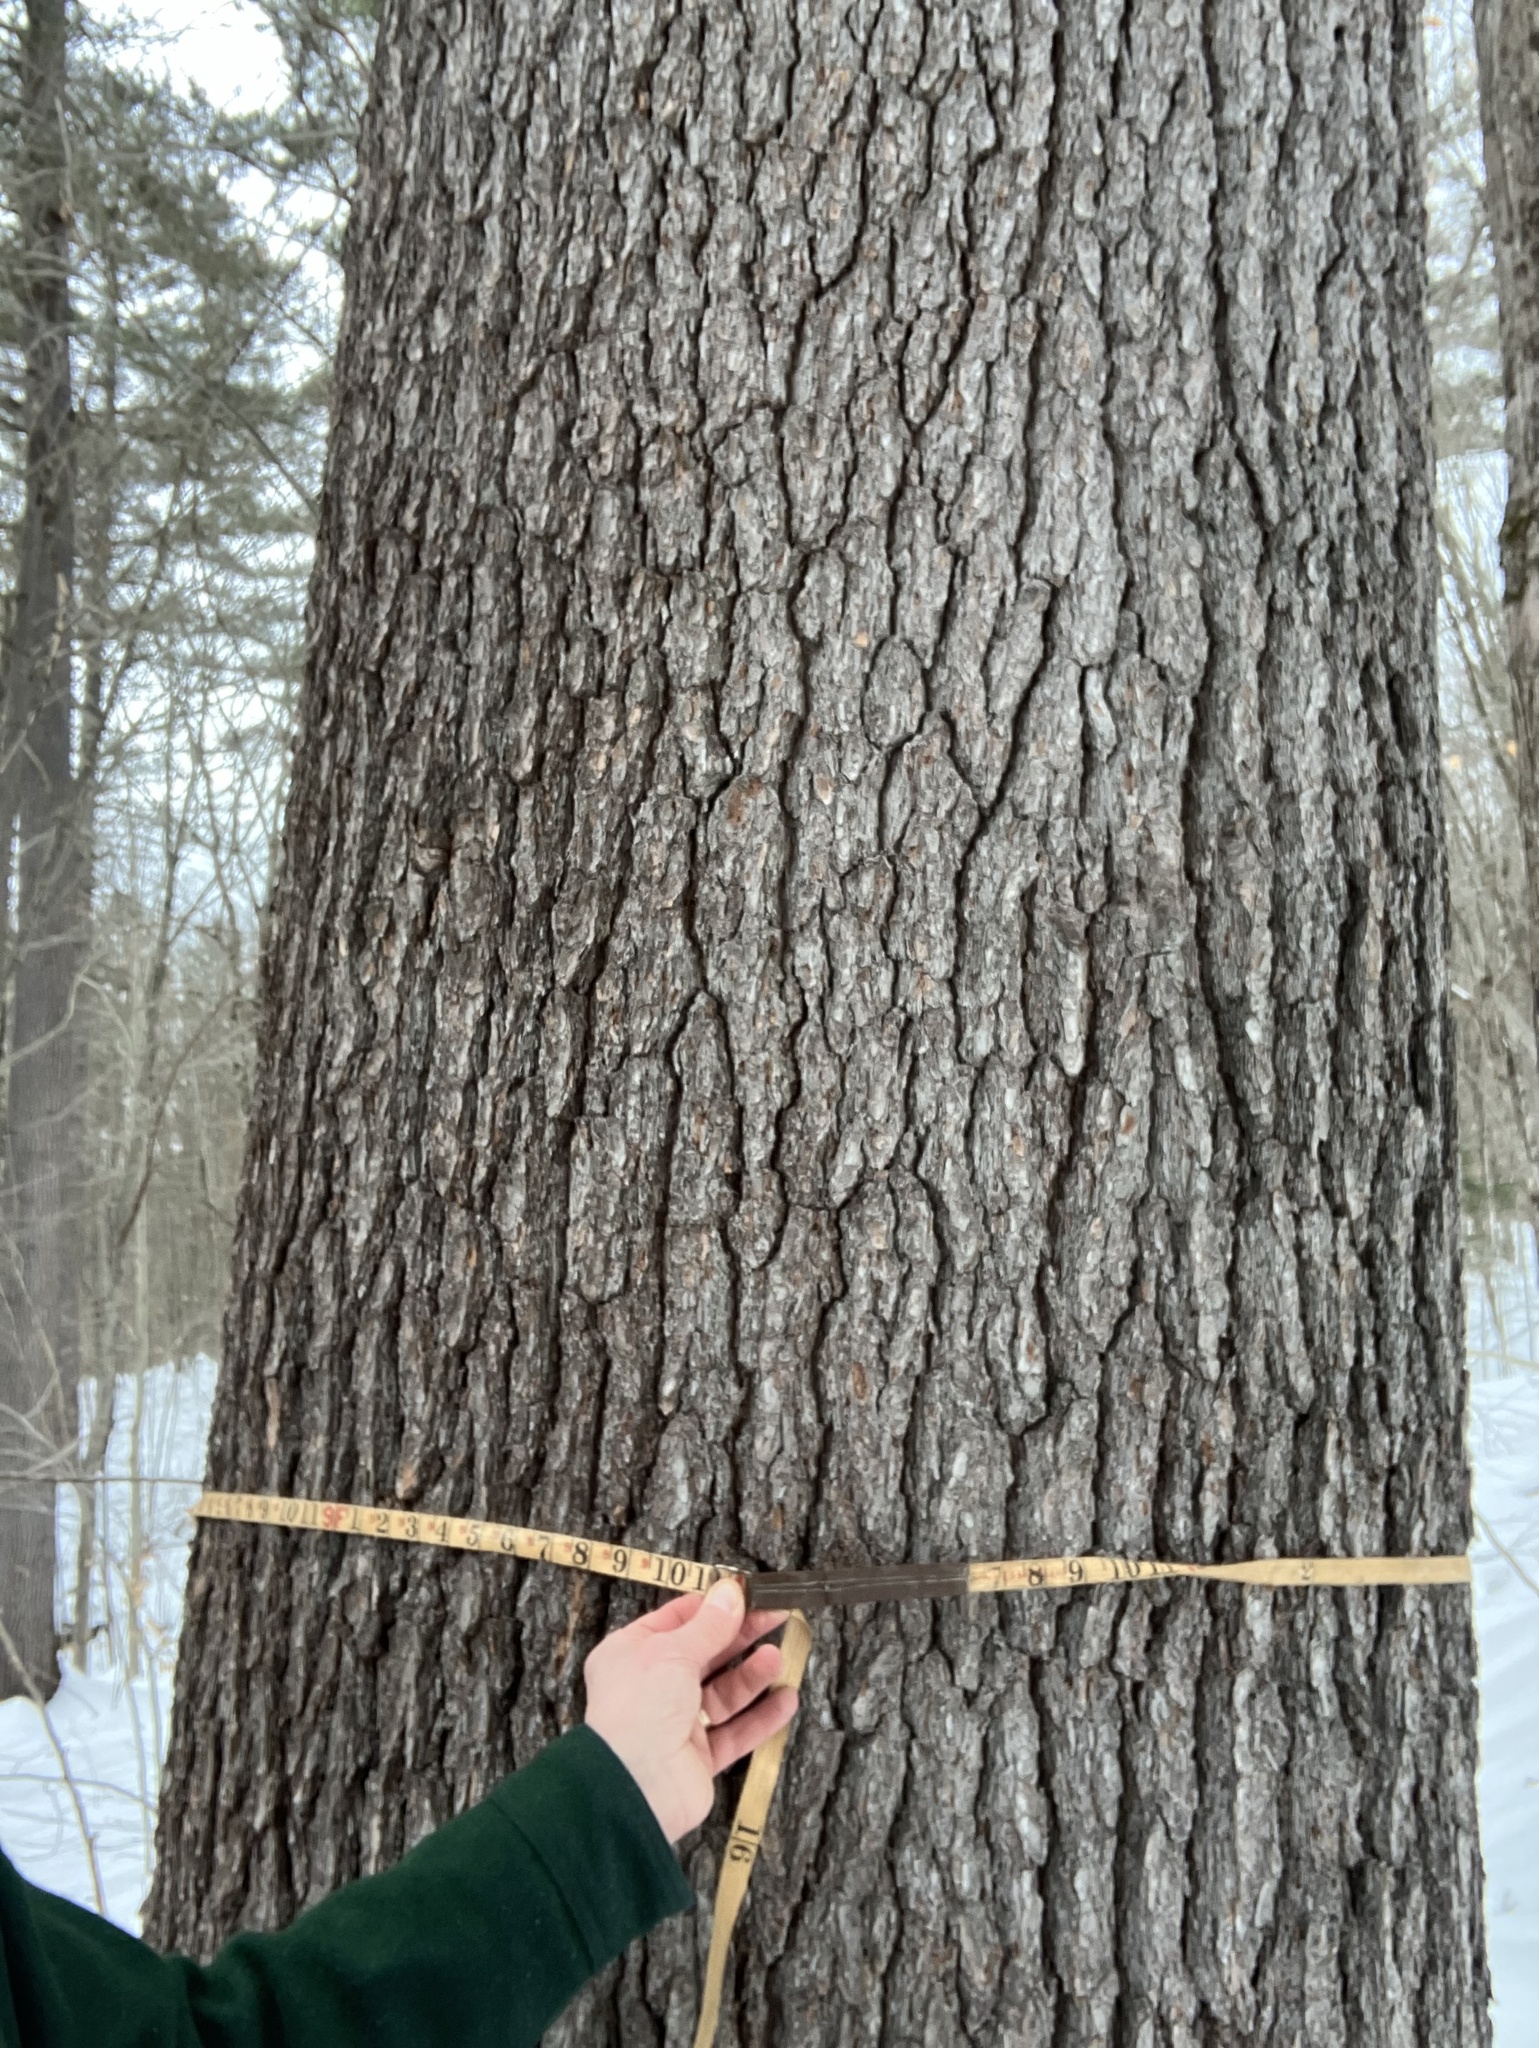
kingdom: Plantae
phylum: Tracheophyta
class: Pinopsida
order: Pinales
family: Pinaceae
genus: Pinus
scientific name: Pinus strobus
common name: Weymouth pine
